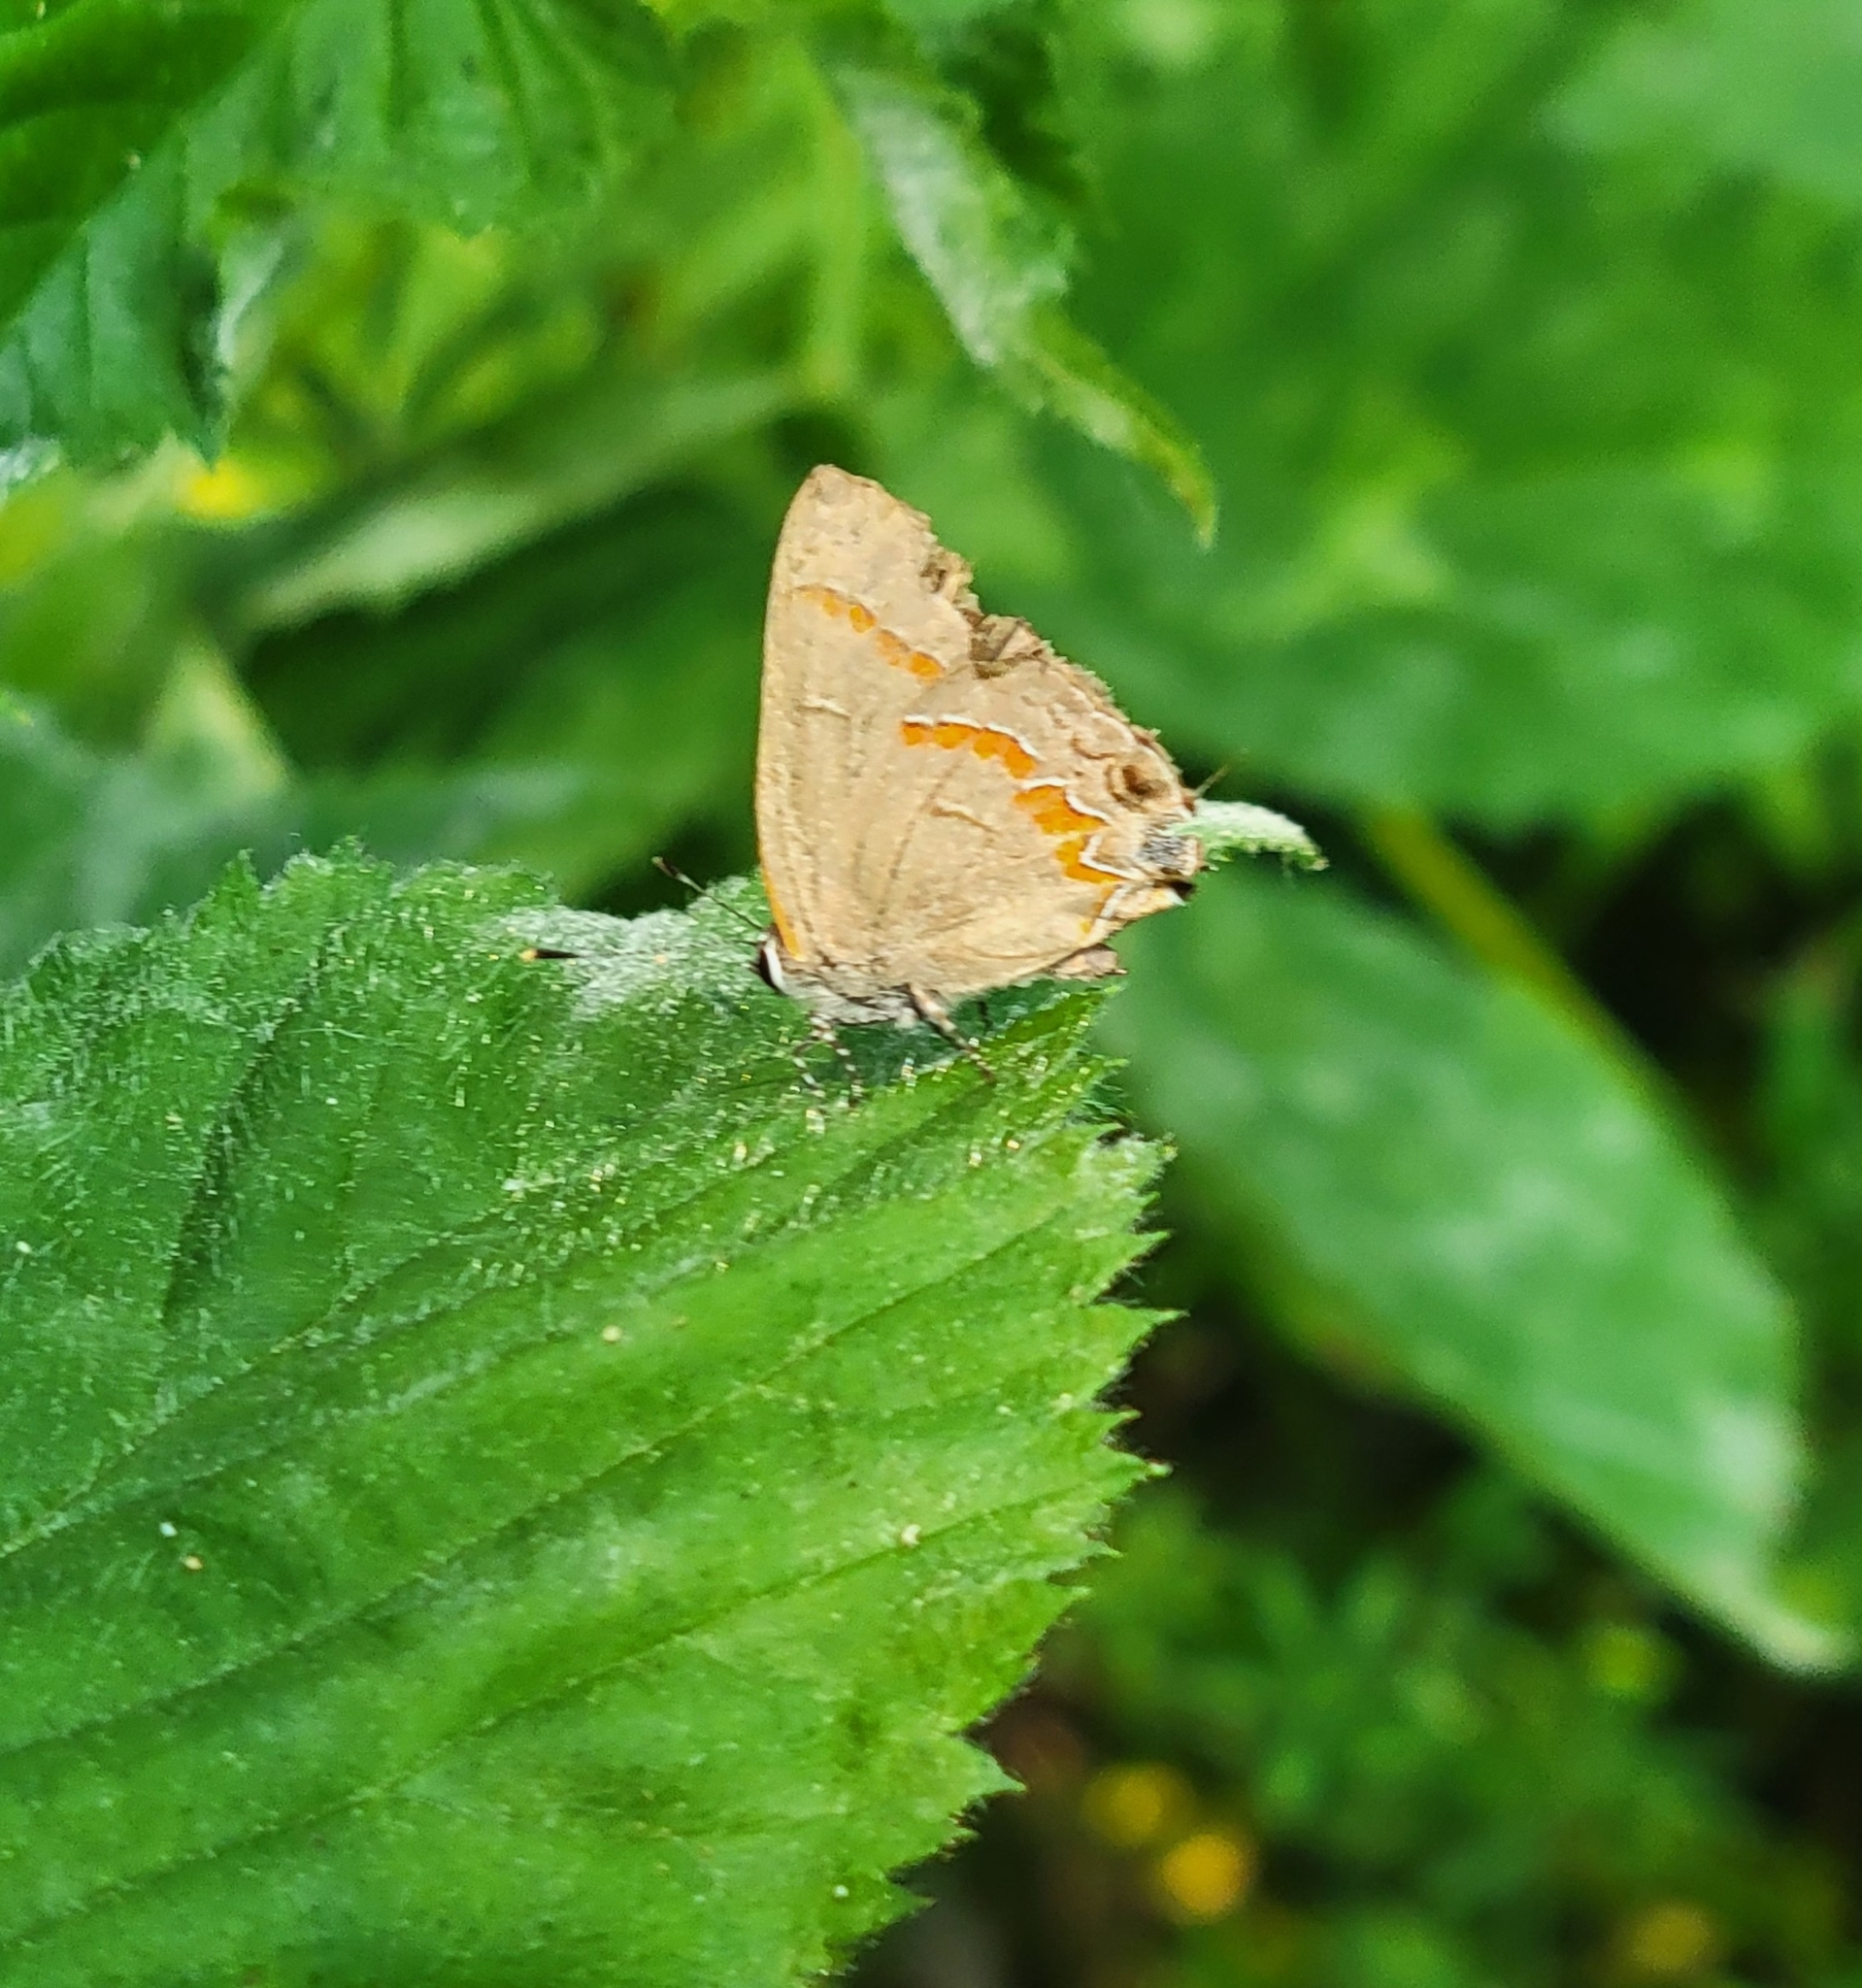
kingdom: Animalia
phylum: Arthropoda
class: Insecta
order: Lepidoptera
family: Lycaenidae
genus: Calycopis
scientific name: Calycopis cecrops
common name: Red-banded hairstreak
